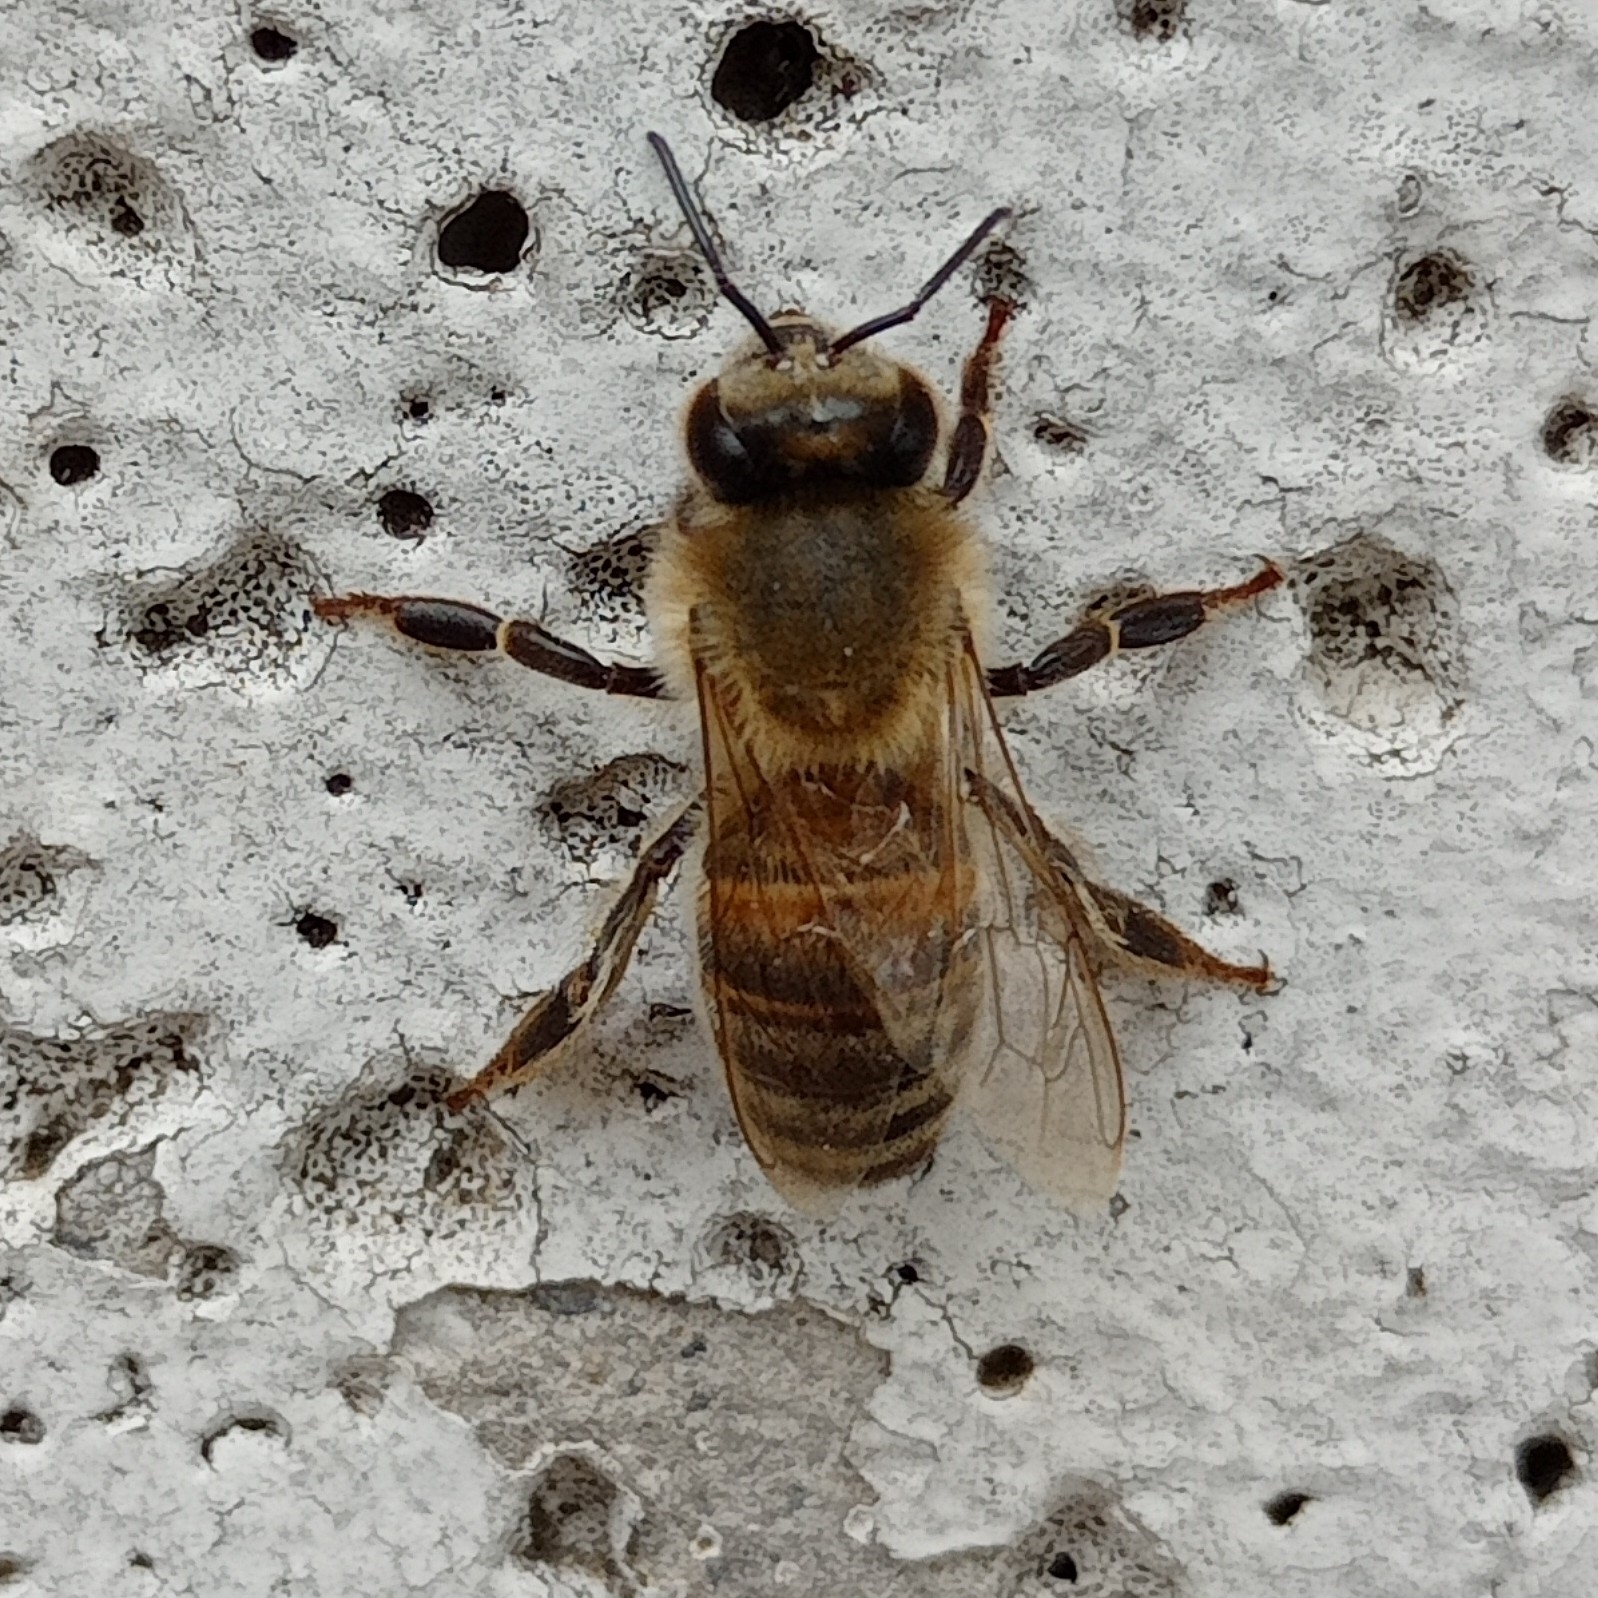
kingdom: Animalia
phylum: Arthropoda
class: Insecta
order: Hymenoptera
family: Apidae
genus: Apis
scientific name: Apis mellifera
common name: Honey bee
